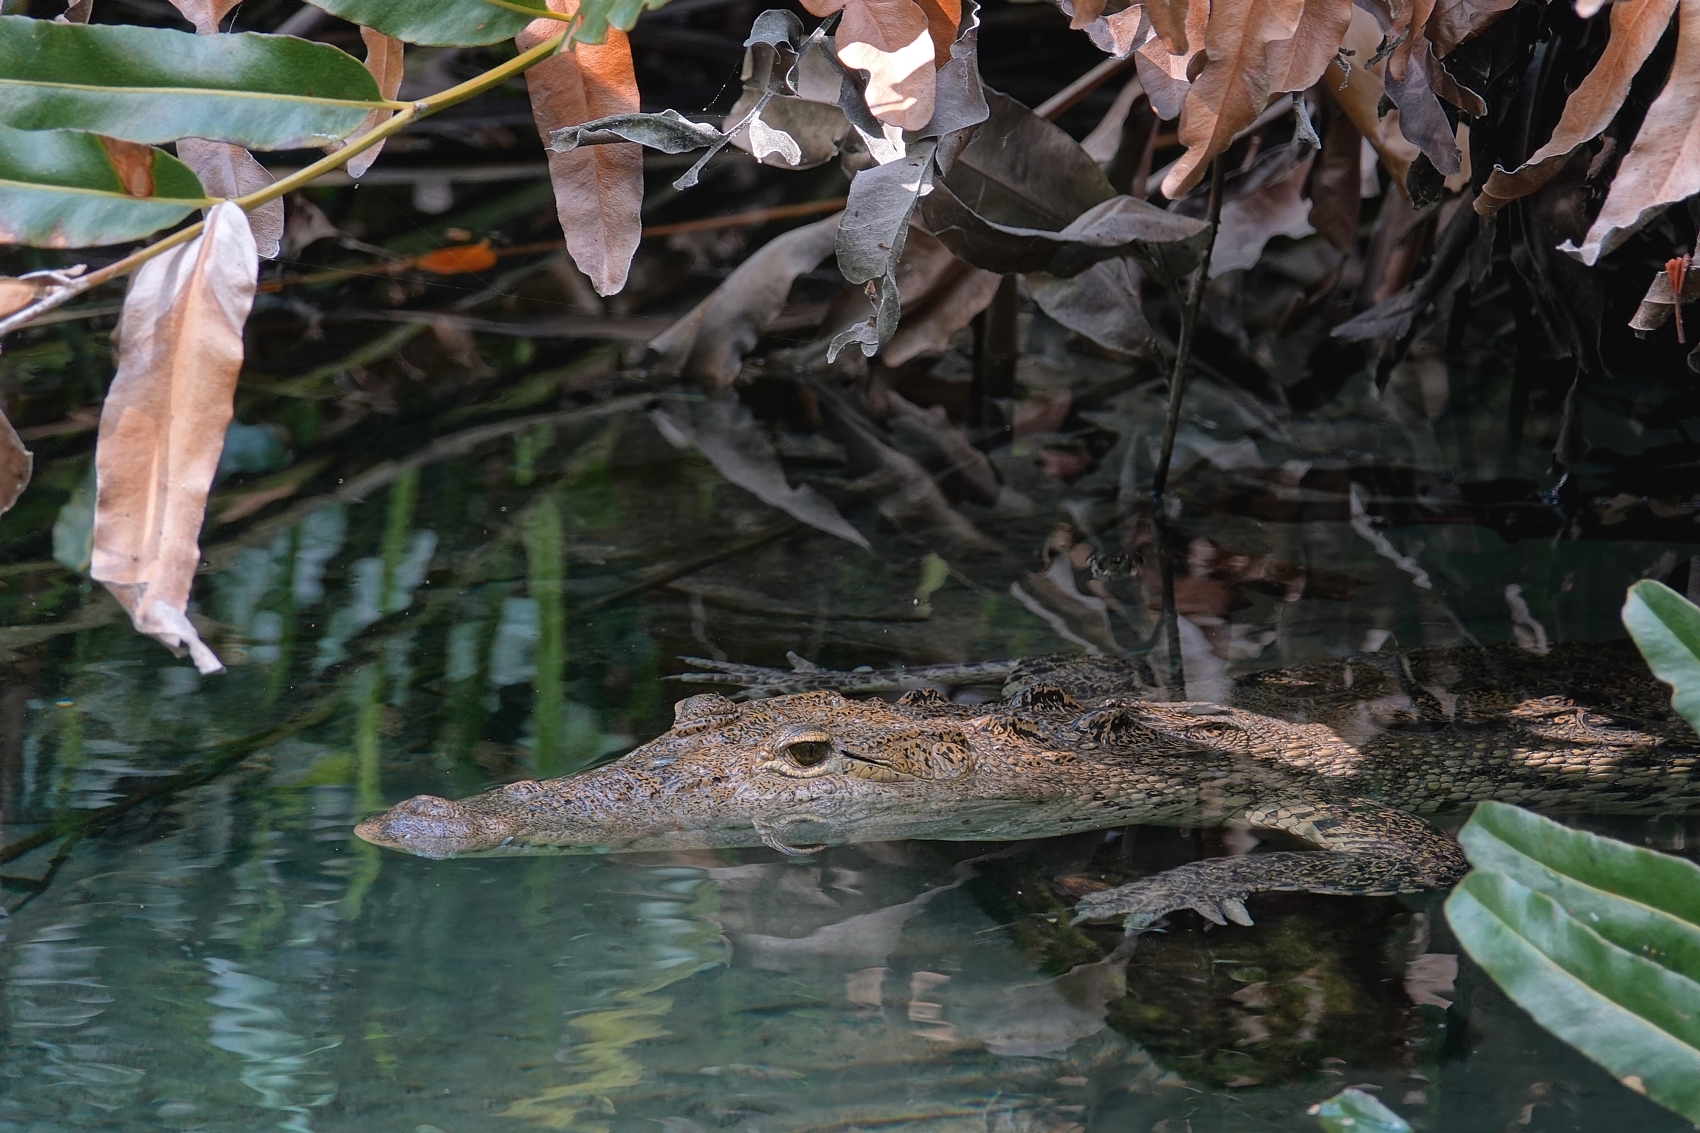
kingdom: Animalia
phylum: Chordata
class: Crocodylia
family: Crocodylidae
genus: Crocodylus
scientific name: Crocodylus moreletii
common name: Morelet's crocodile
